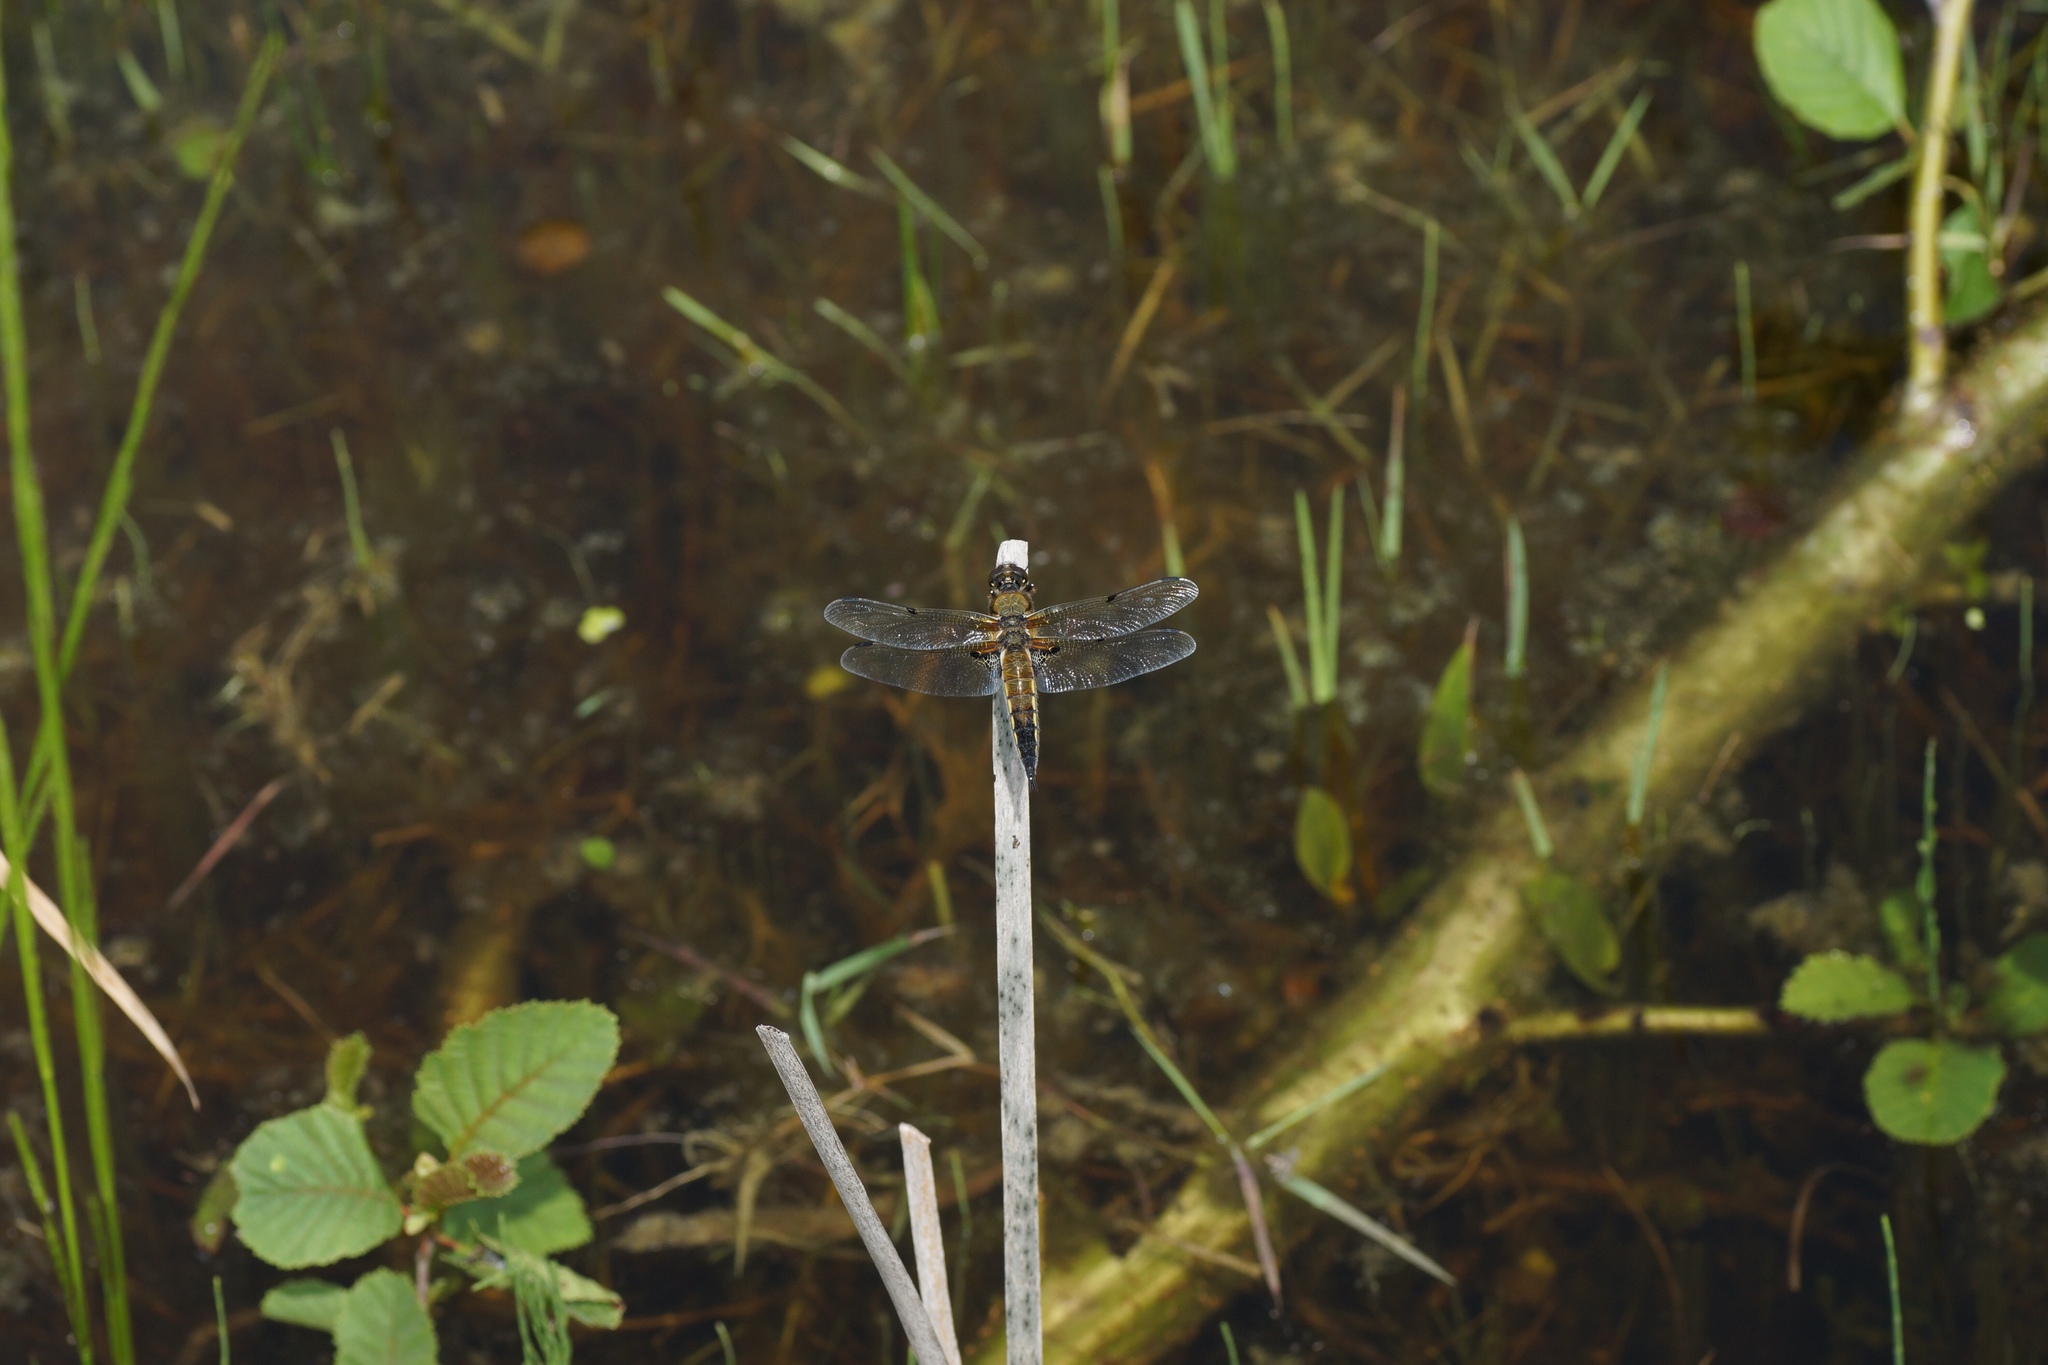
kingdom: Animalia
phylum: Arthropoda
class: Insecta
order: Odonata
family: Libellulidae
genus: Libellula
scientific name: Libellula quadrimaculata
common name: Four-spotted chaser
